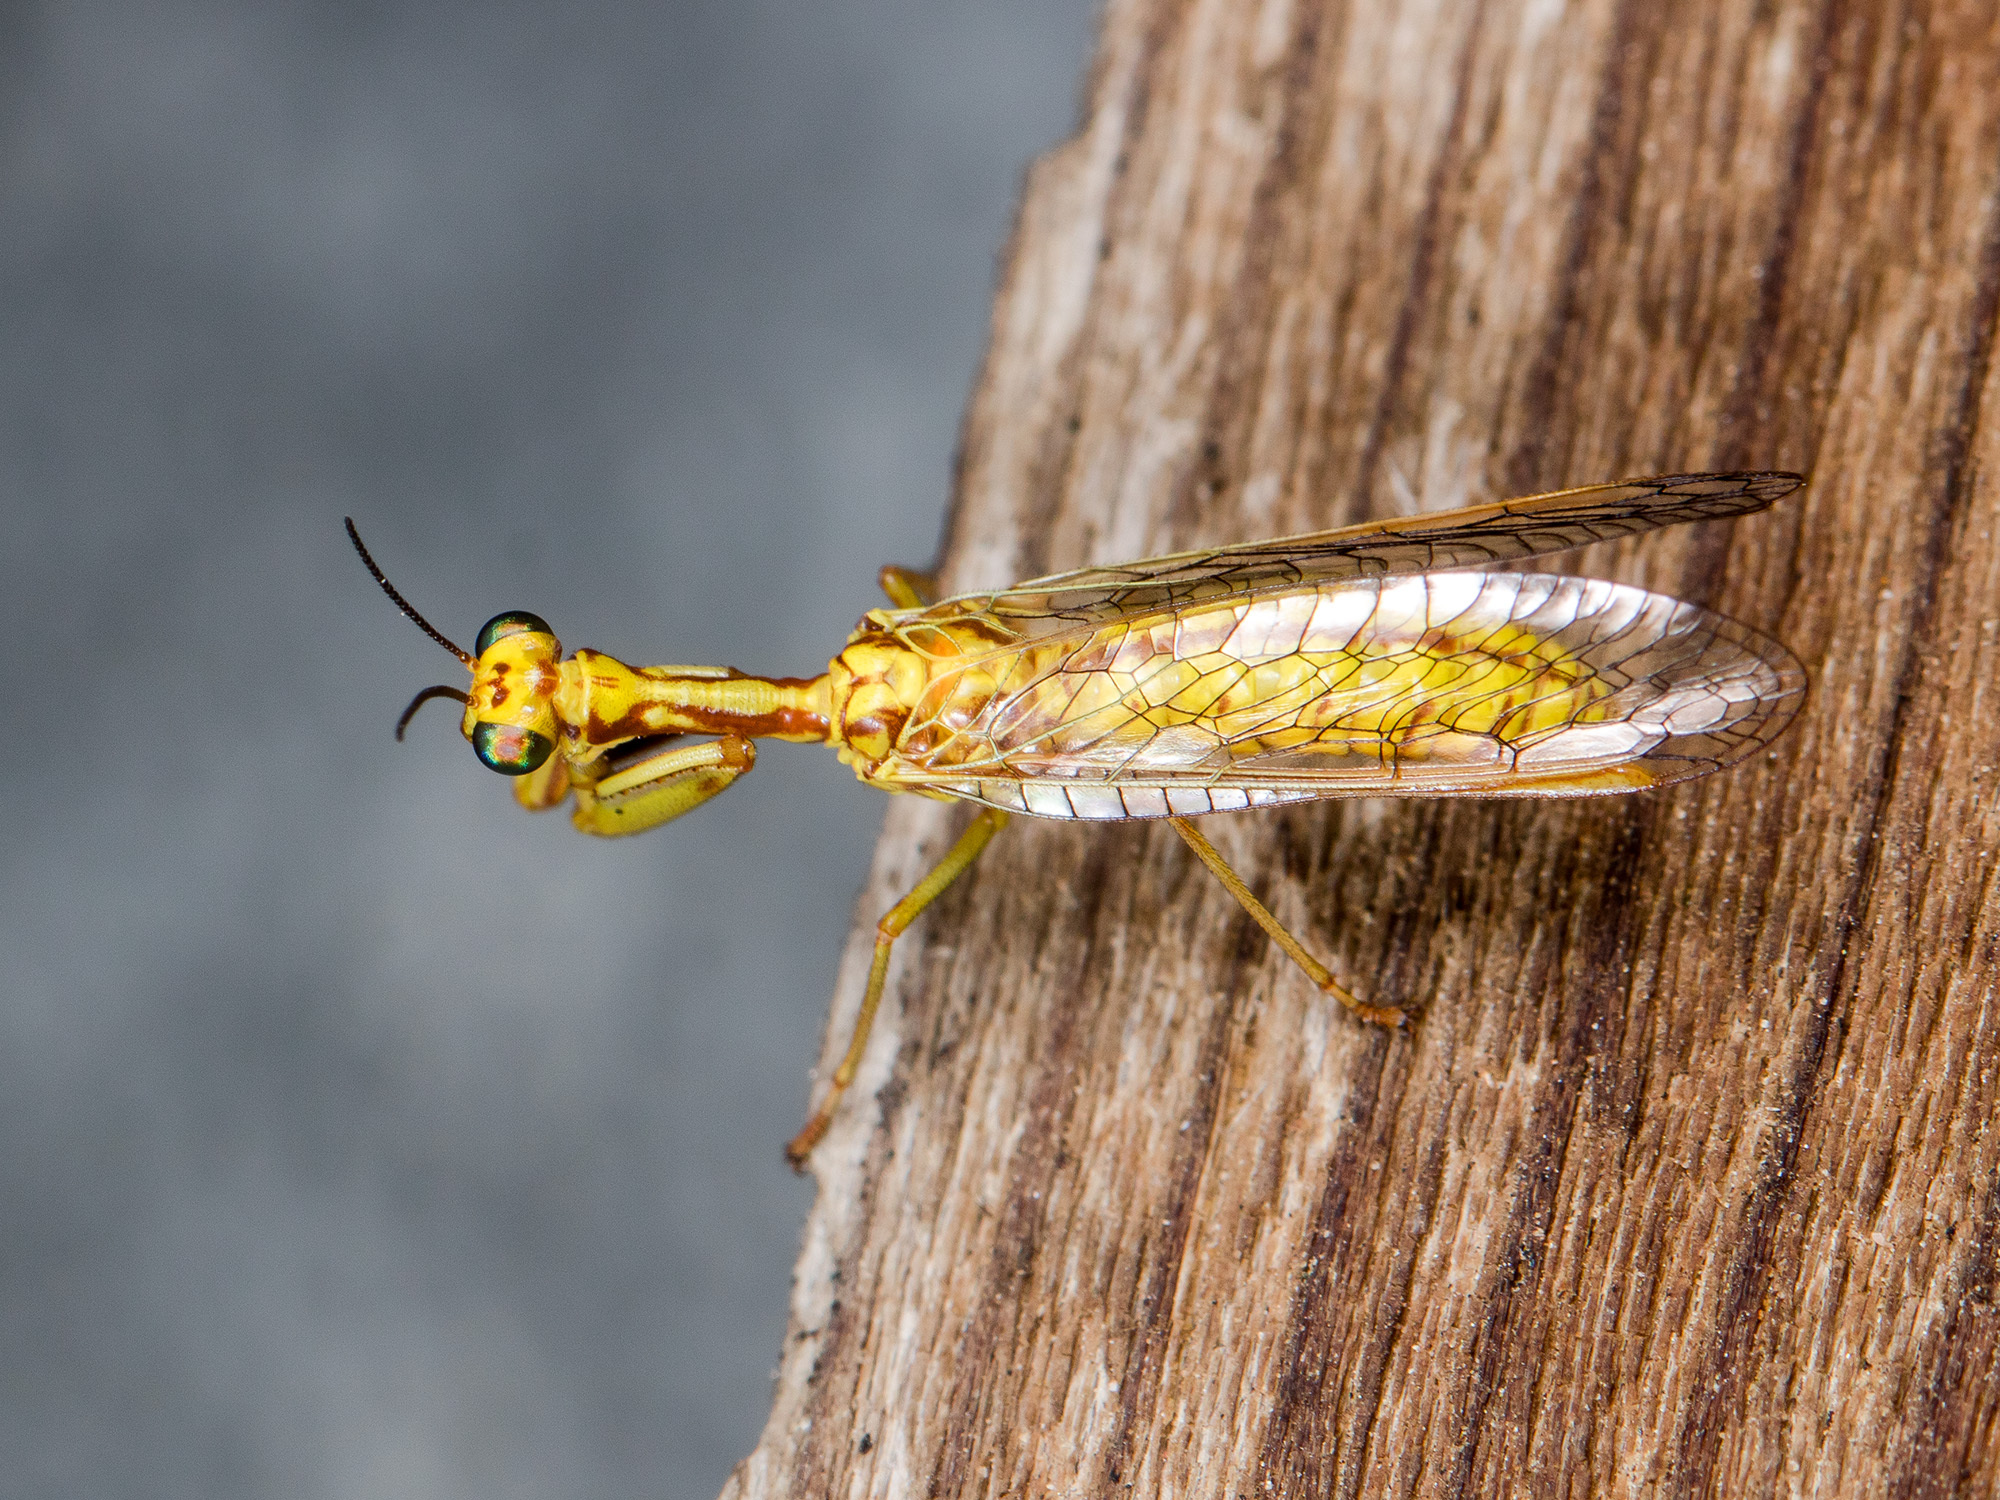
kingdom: Animalia
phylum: Arthropoda
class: Insecta
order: Neuroptera
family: Mantispidae
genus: Mantispa
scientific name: Mantispa aphavexelte
